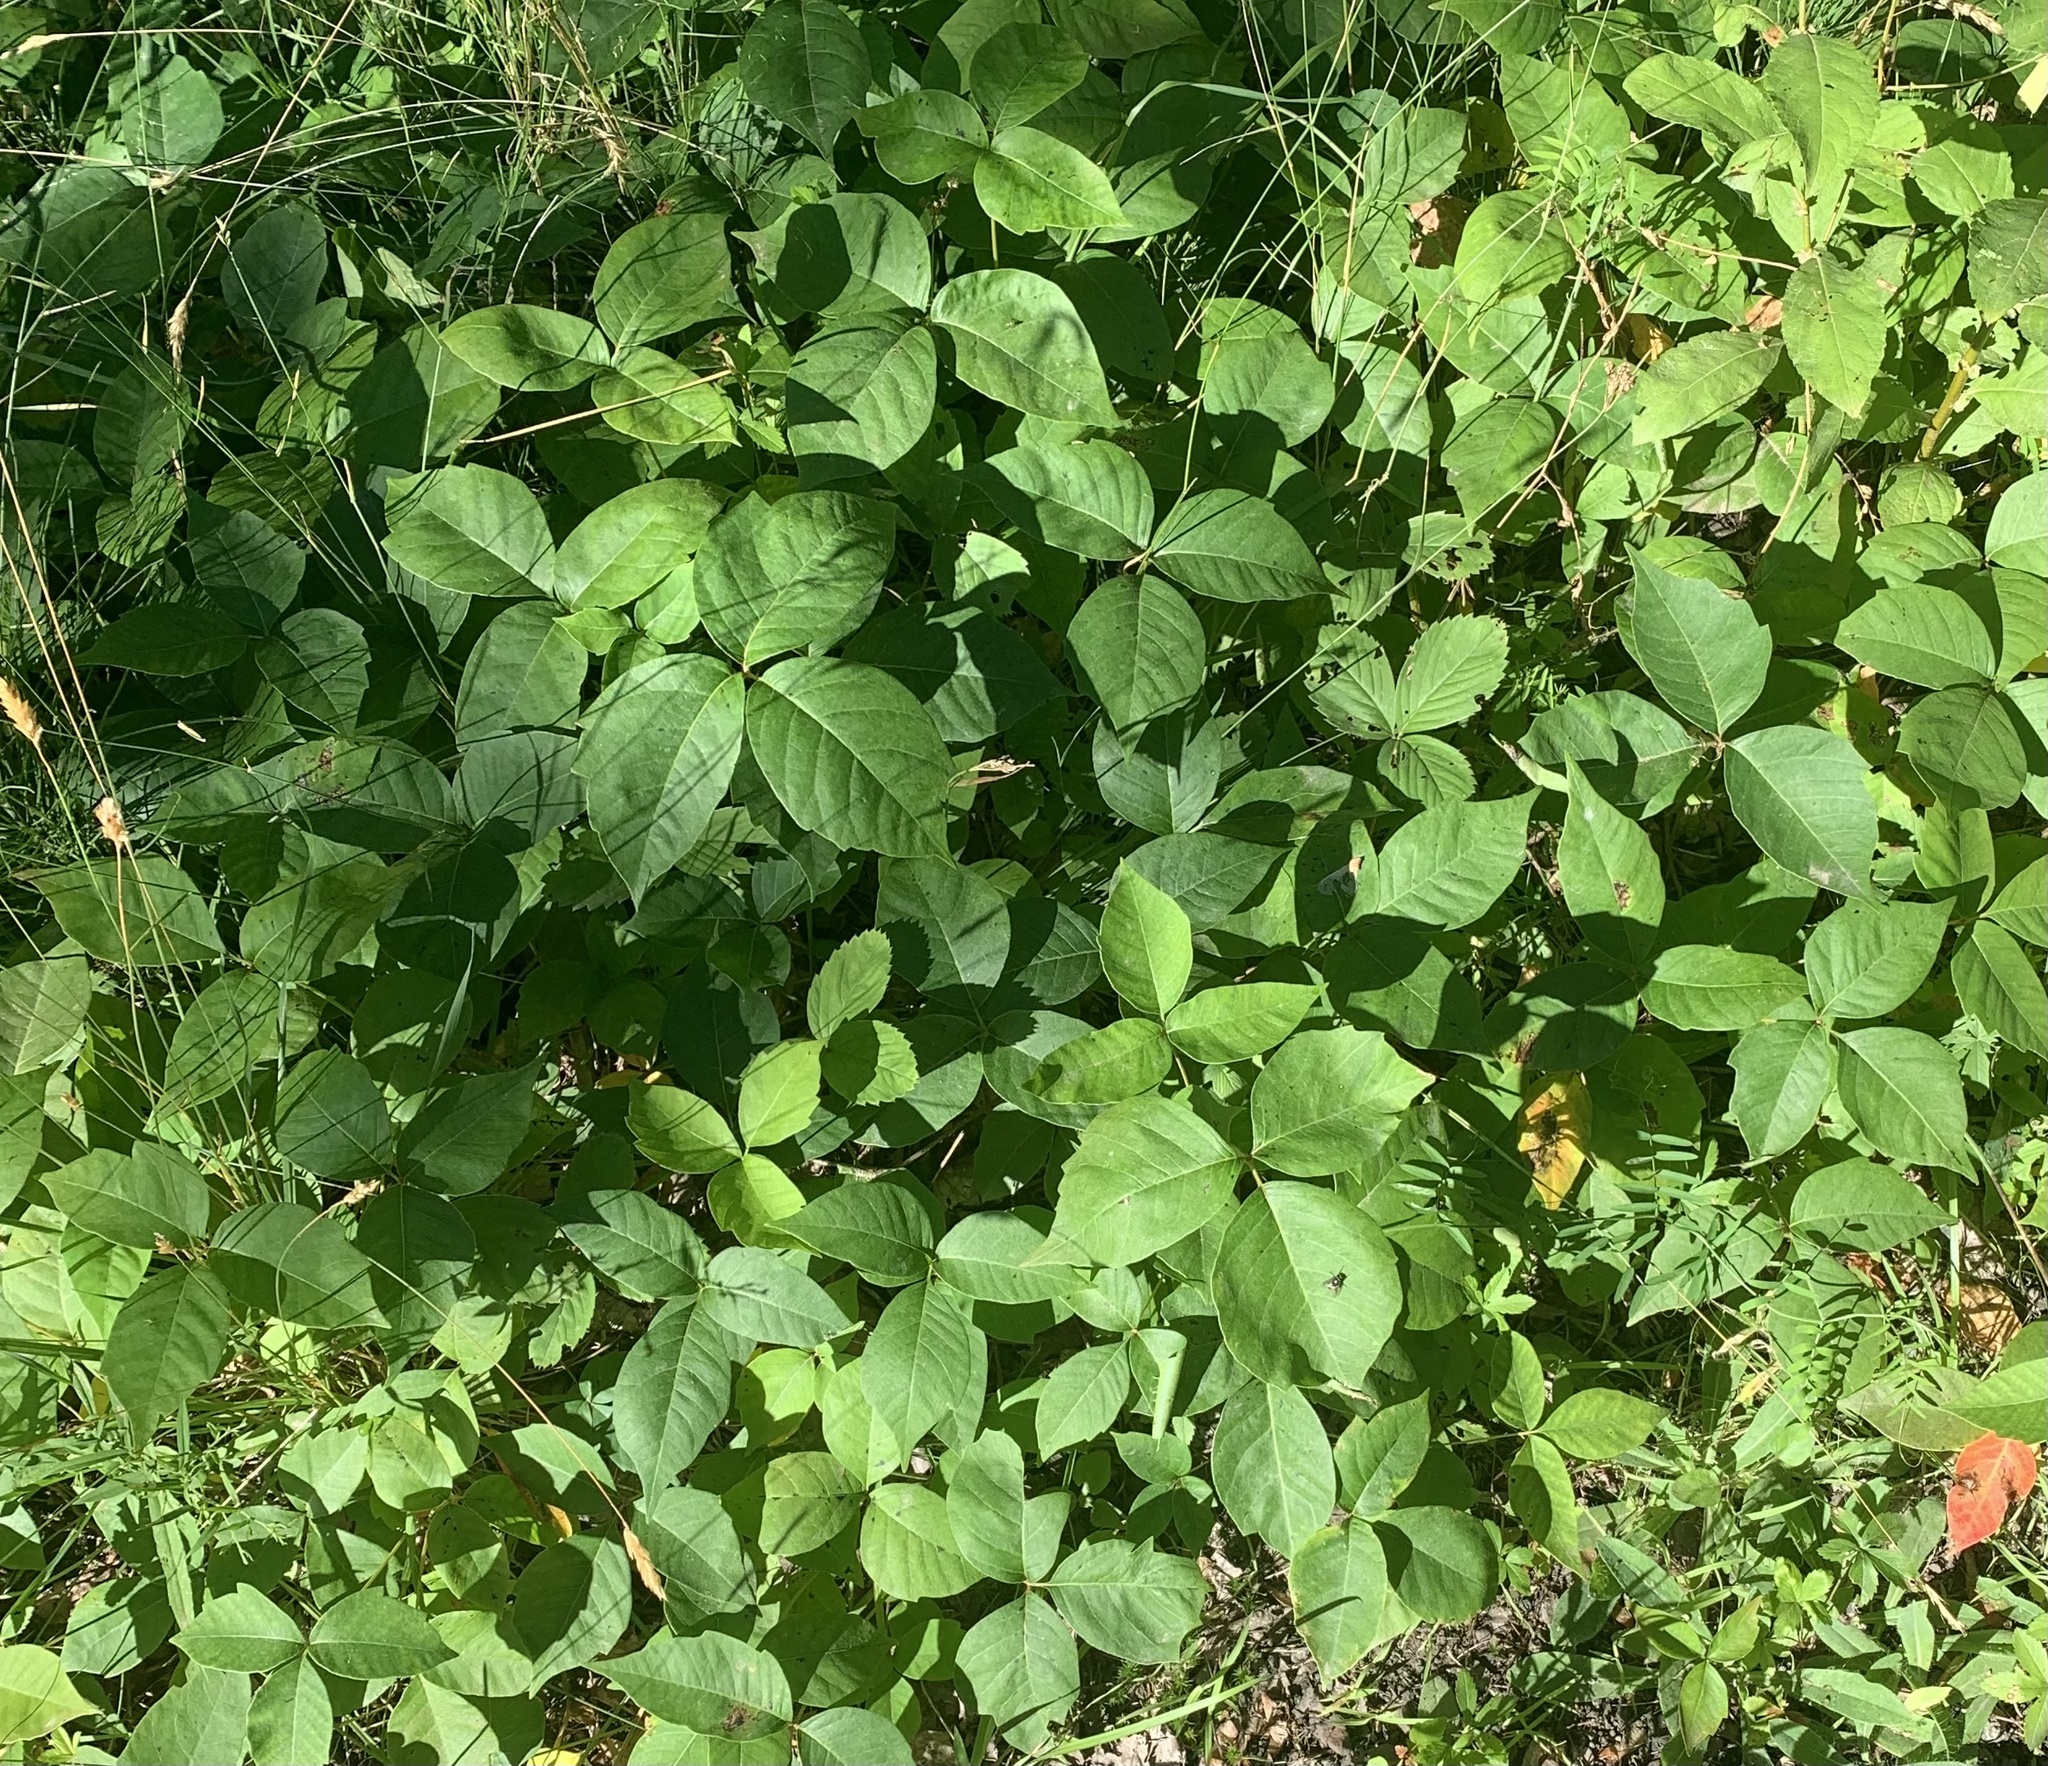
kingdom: Plantae
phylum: Tracheophyta
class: Magnoliopsida
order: Sapindales
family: Anacardiaceae
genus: Toxicodendron
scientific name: Toxicodendron rydbergii
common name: Rydberg's poison-ivy
